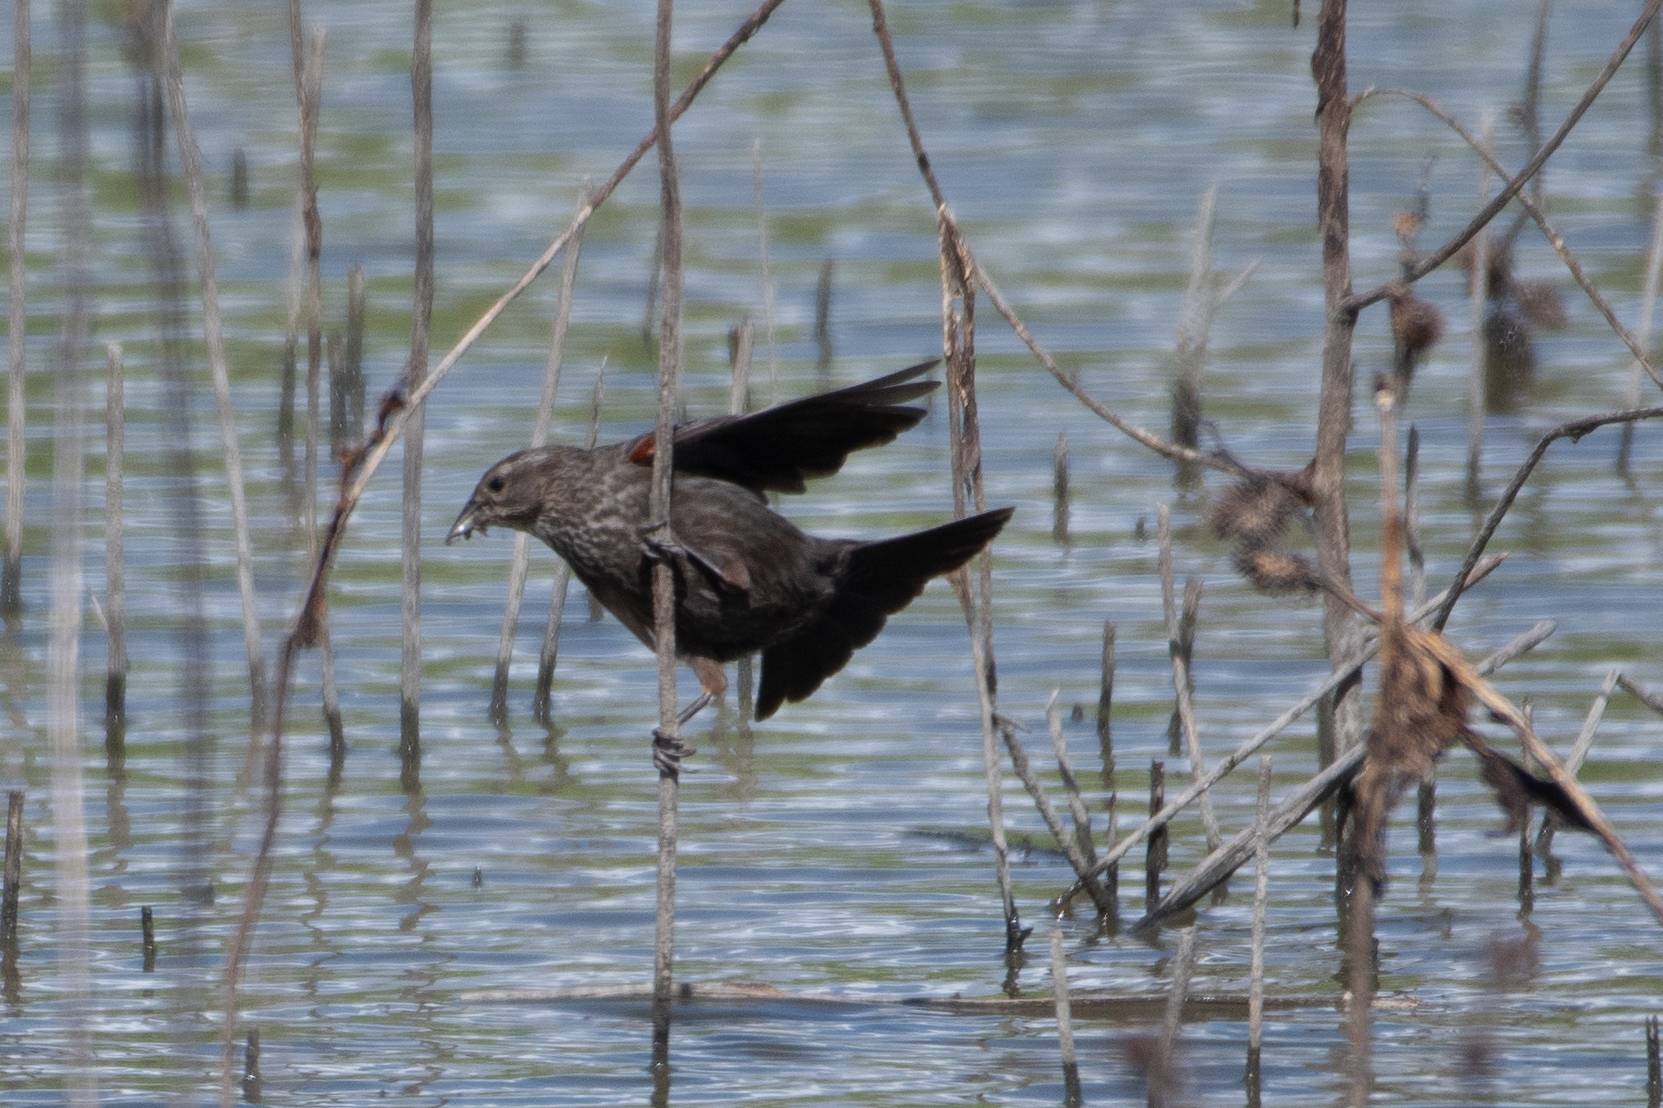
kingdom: Animalia
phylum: Chordata
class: Aves
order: Passeriformes
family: Icteridae
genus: Agelaius
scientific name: Agelaius phoeniceus
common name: Red-winged blackbird
